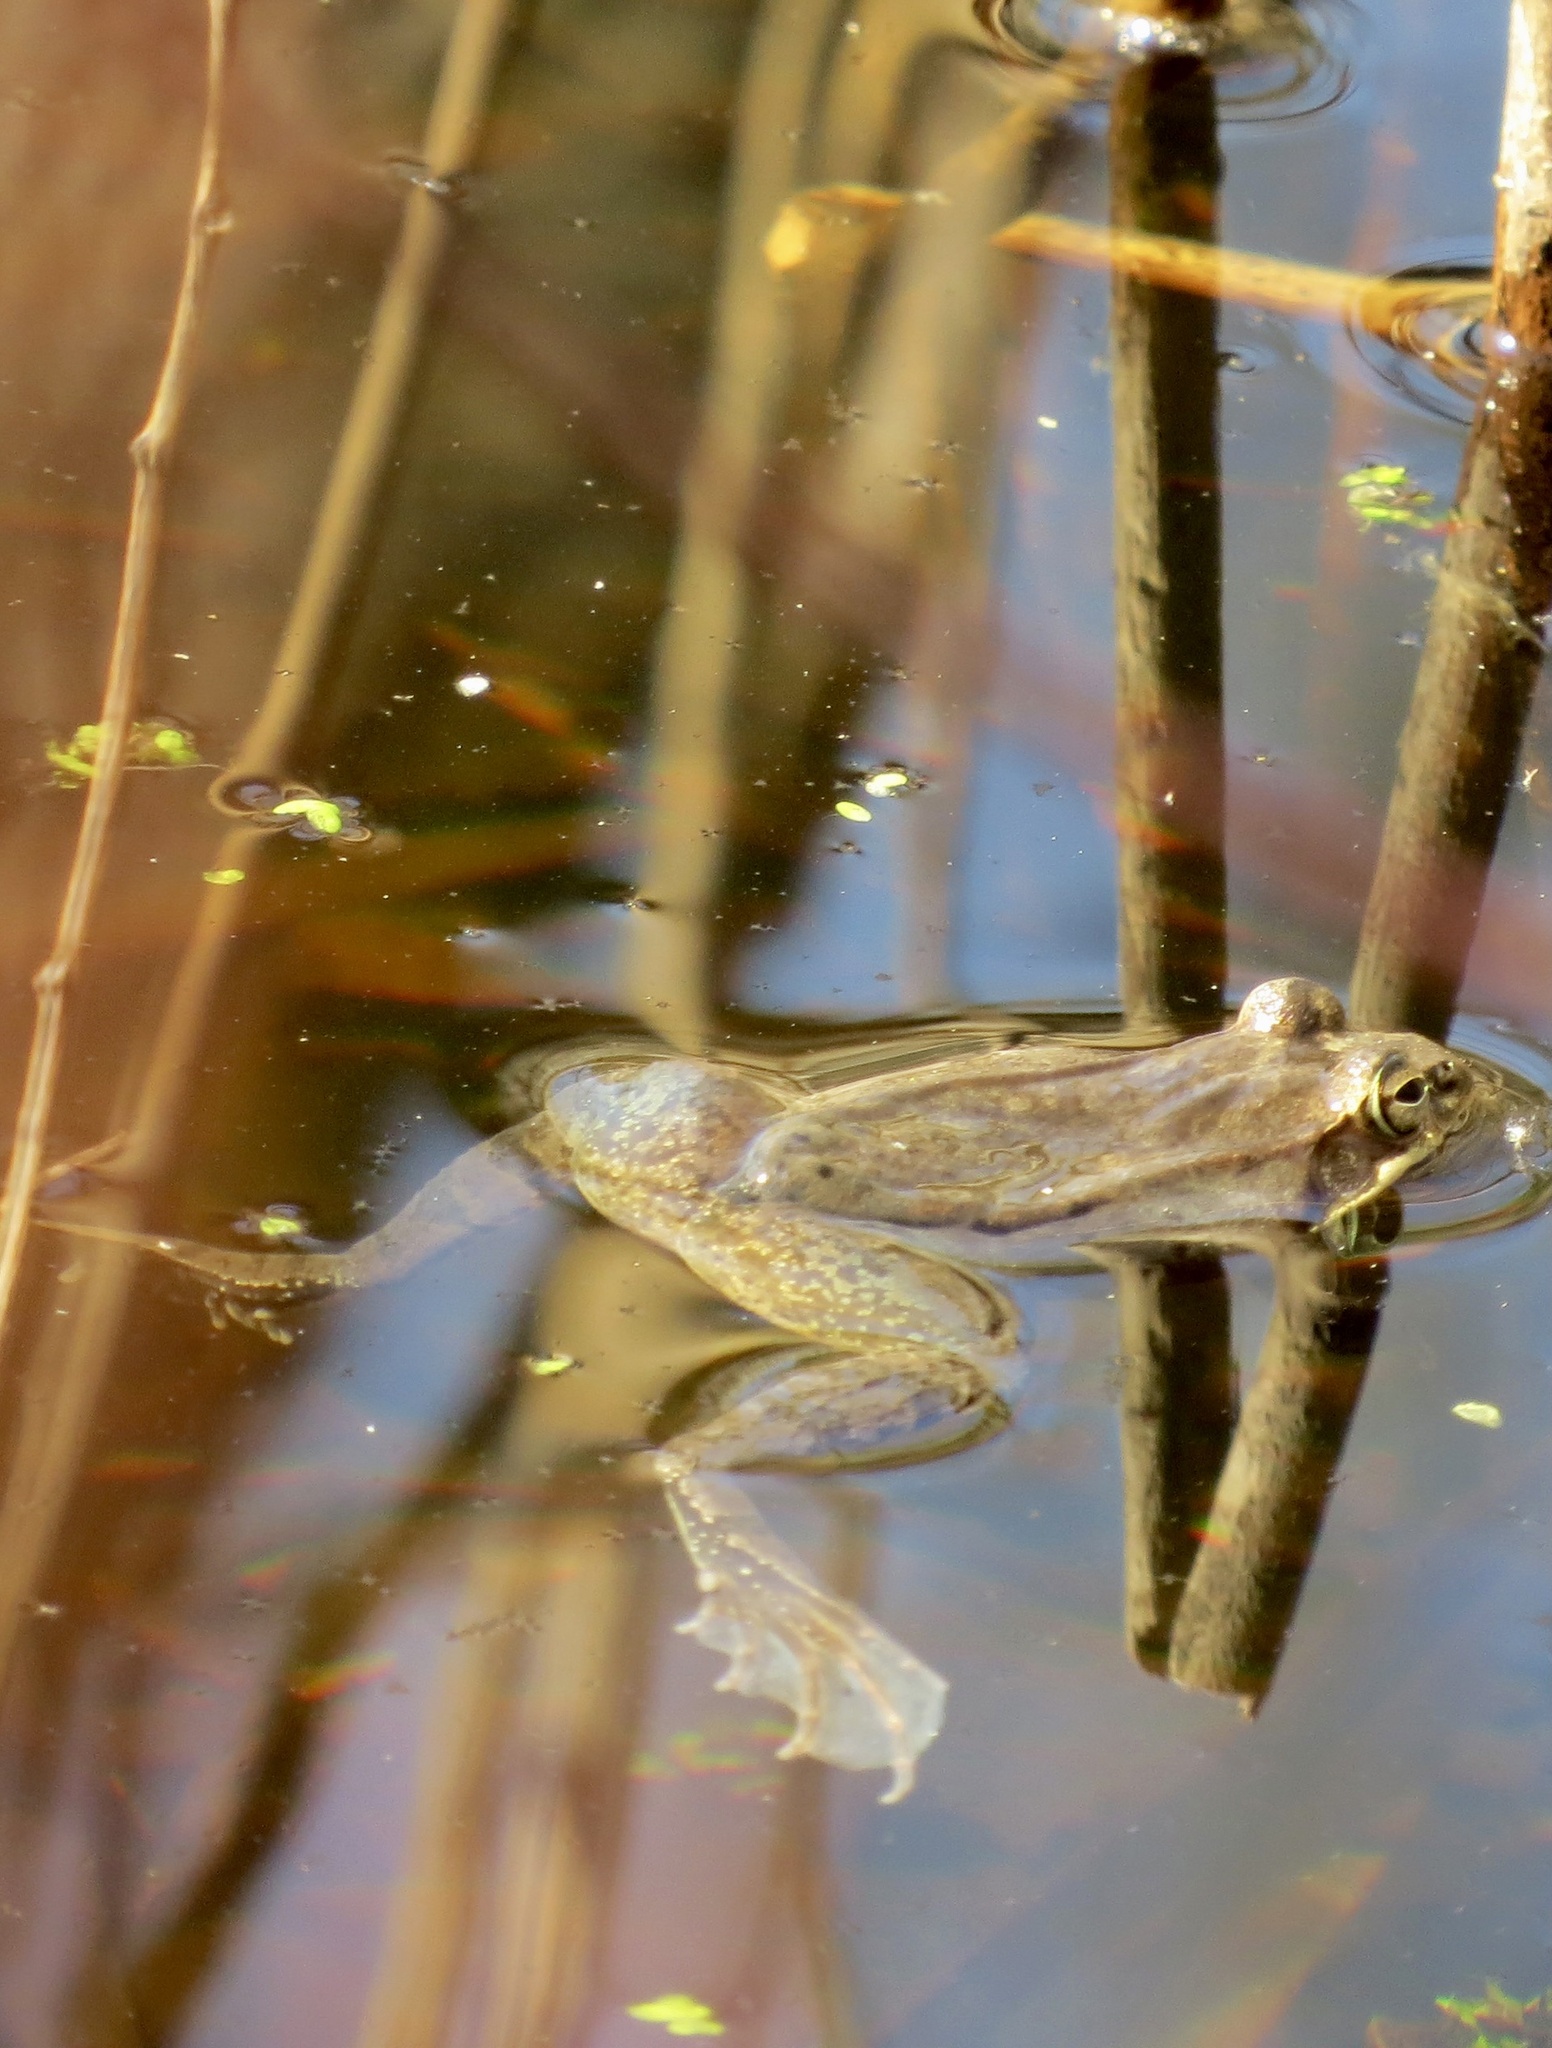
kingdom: Animalia
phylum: Chordata
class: Amphibia
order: Anura
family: Ranidae
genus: Lithobates
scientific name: Lithobates sylvaticus
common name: Wood frog
